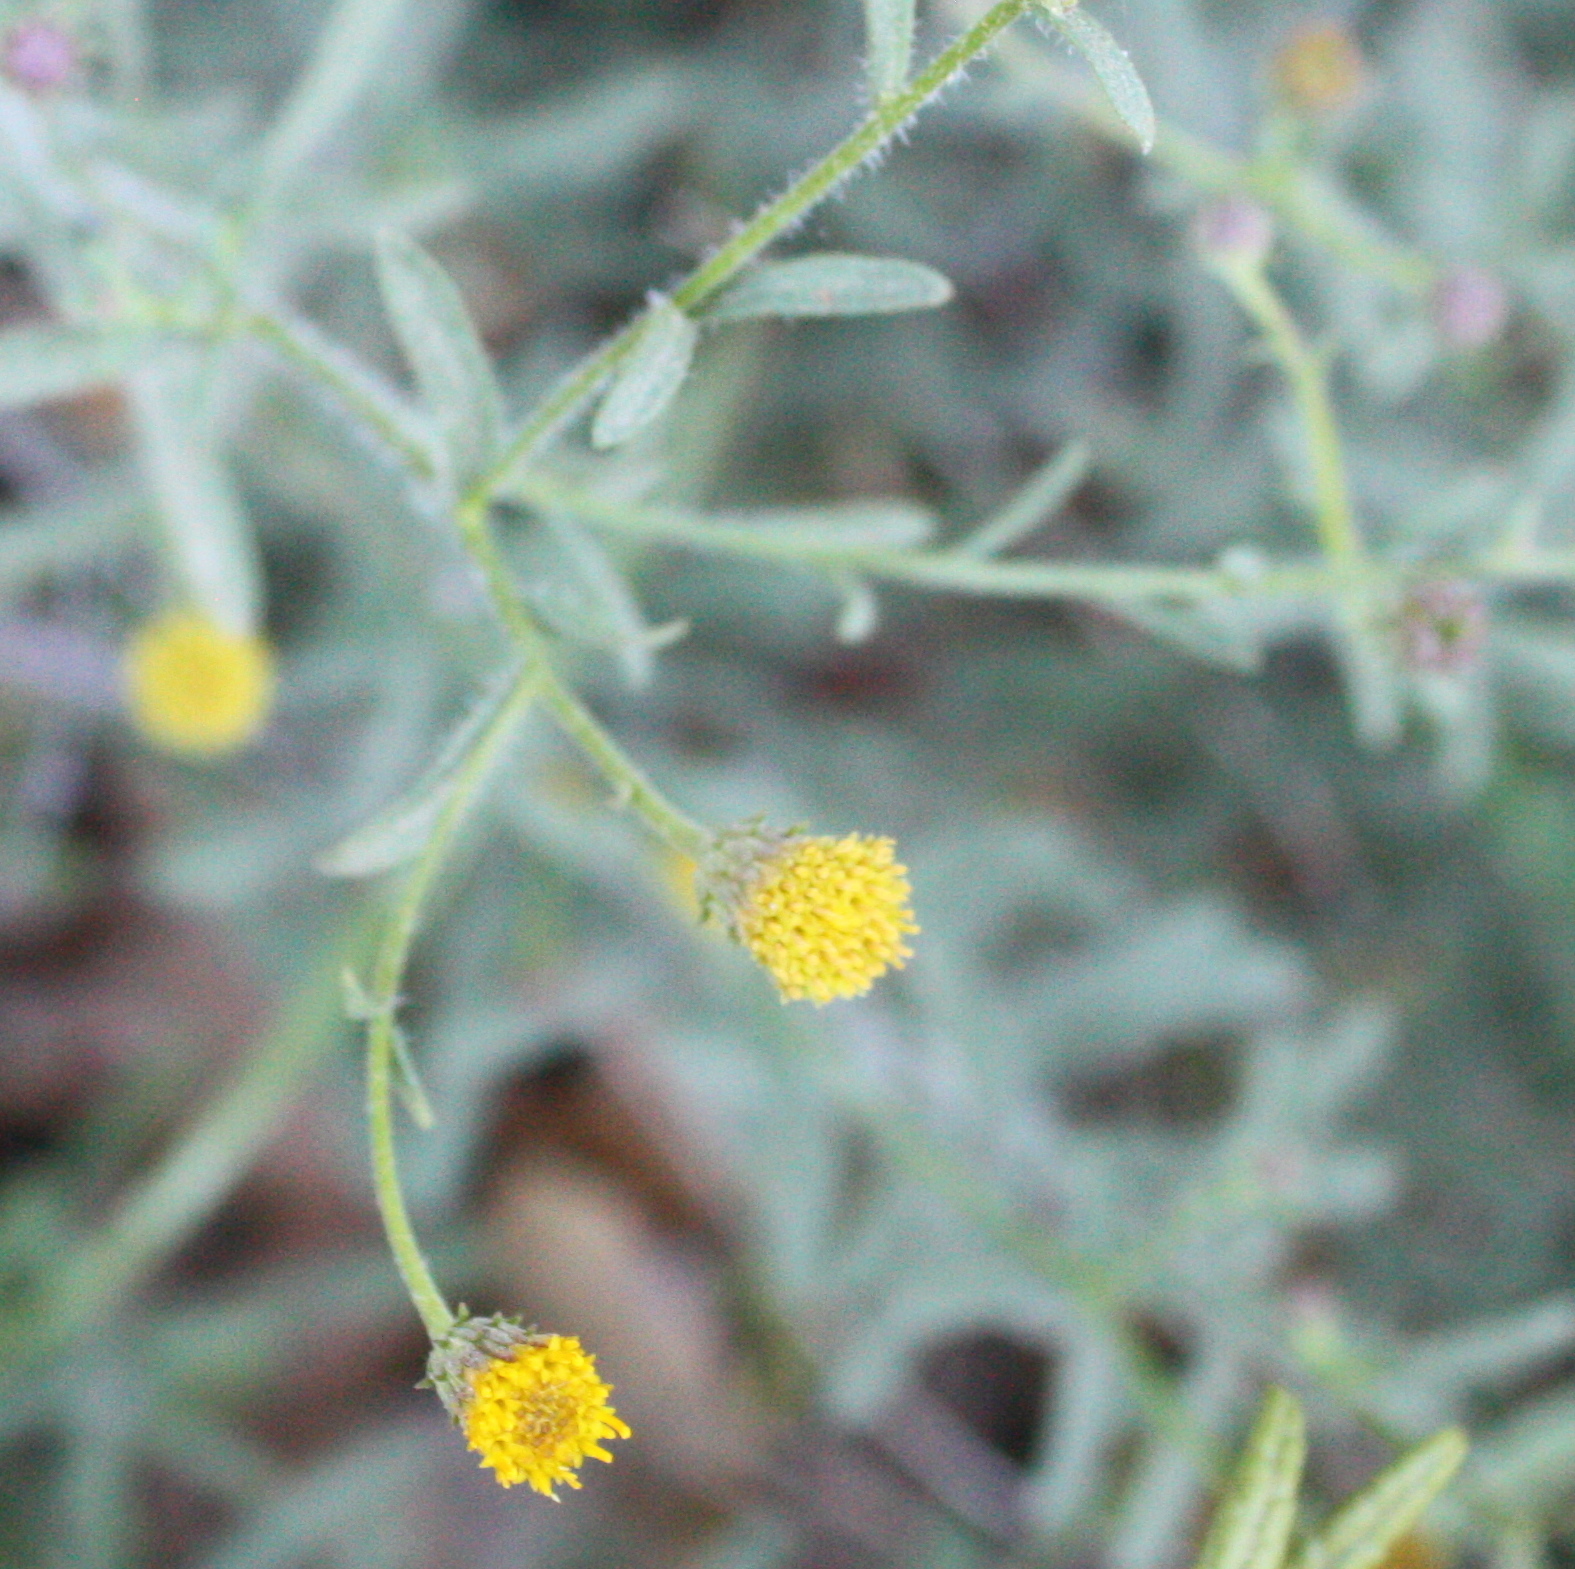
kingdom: Plantae
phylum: Tracheophyta
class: Magnoliopsida
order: Asterales
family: Asteraceae
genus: Erigeron
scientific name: Erigeron petrophilus
